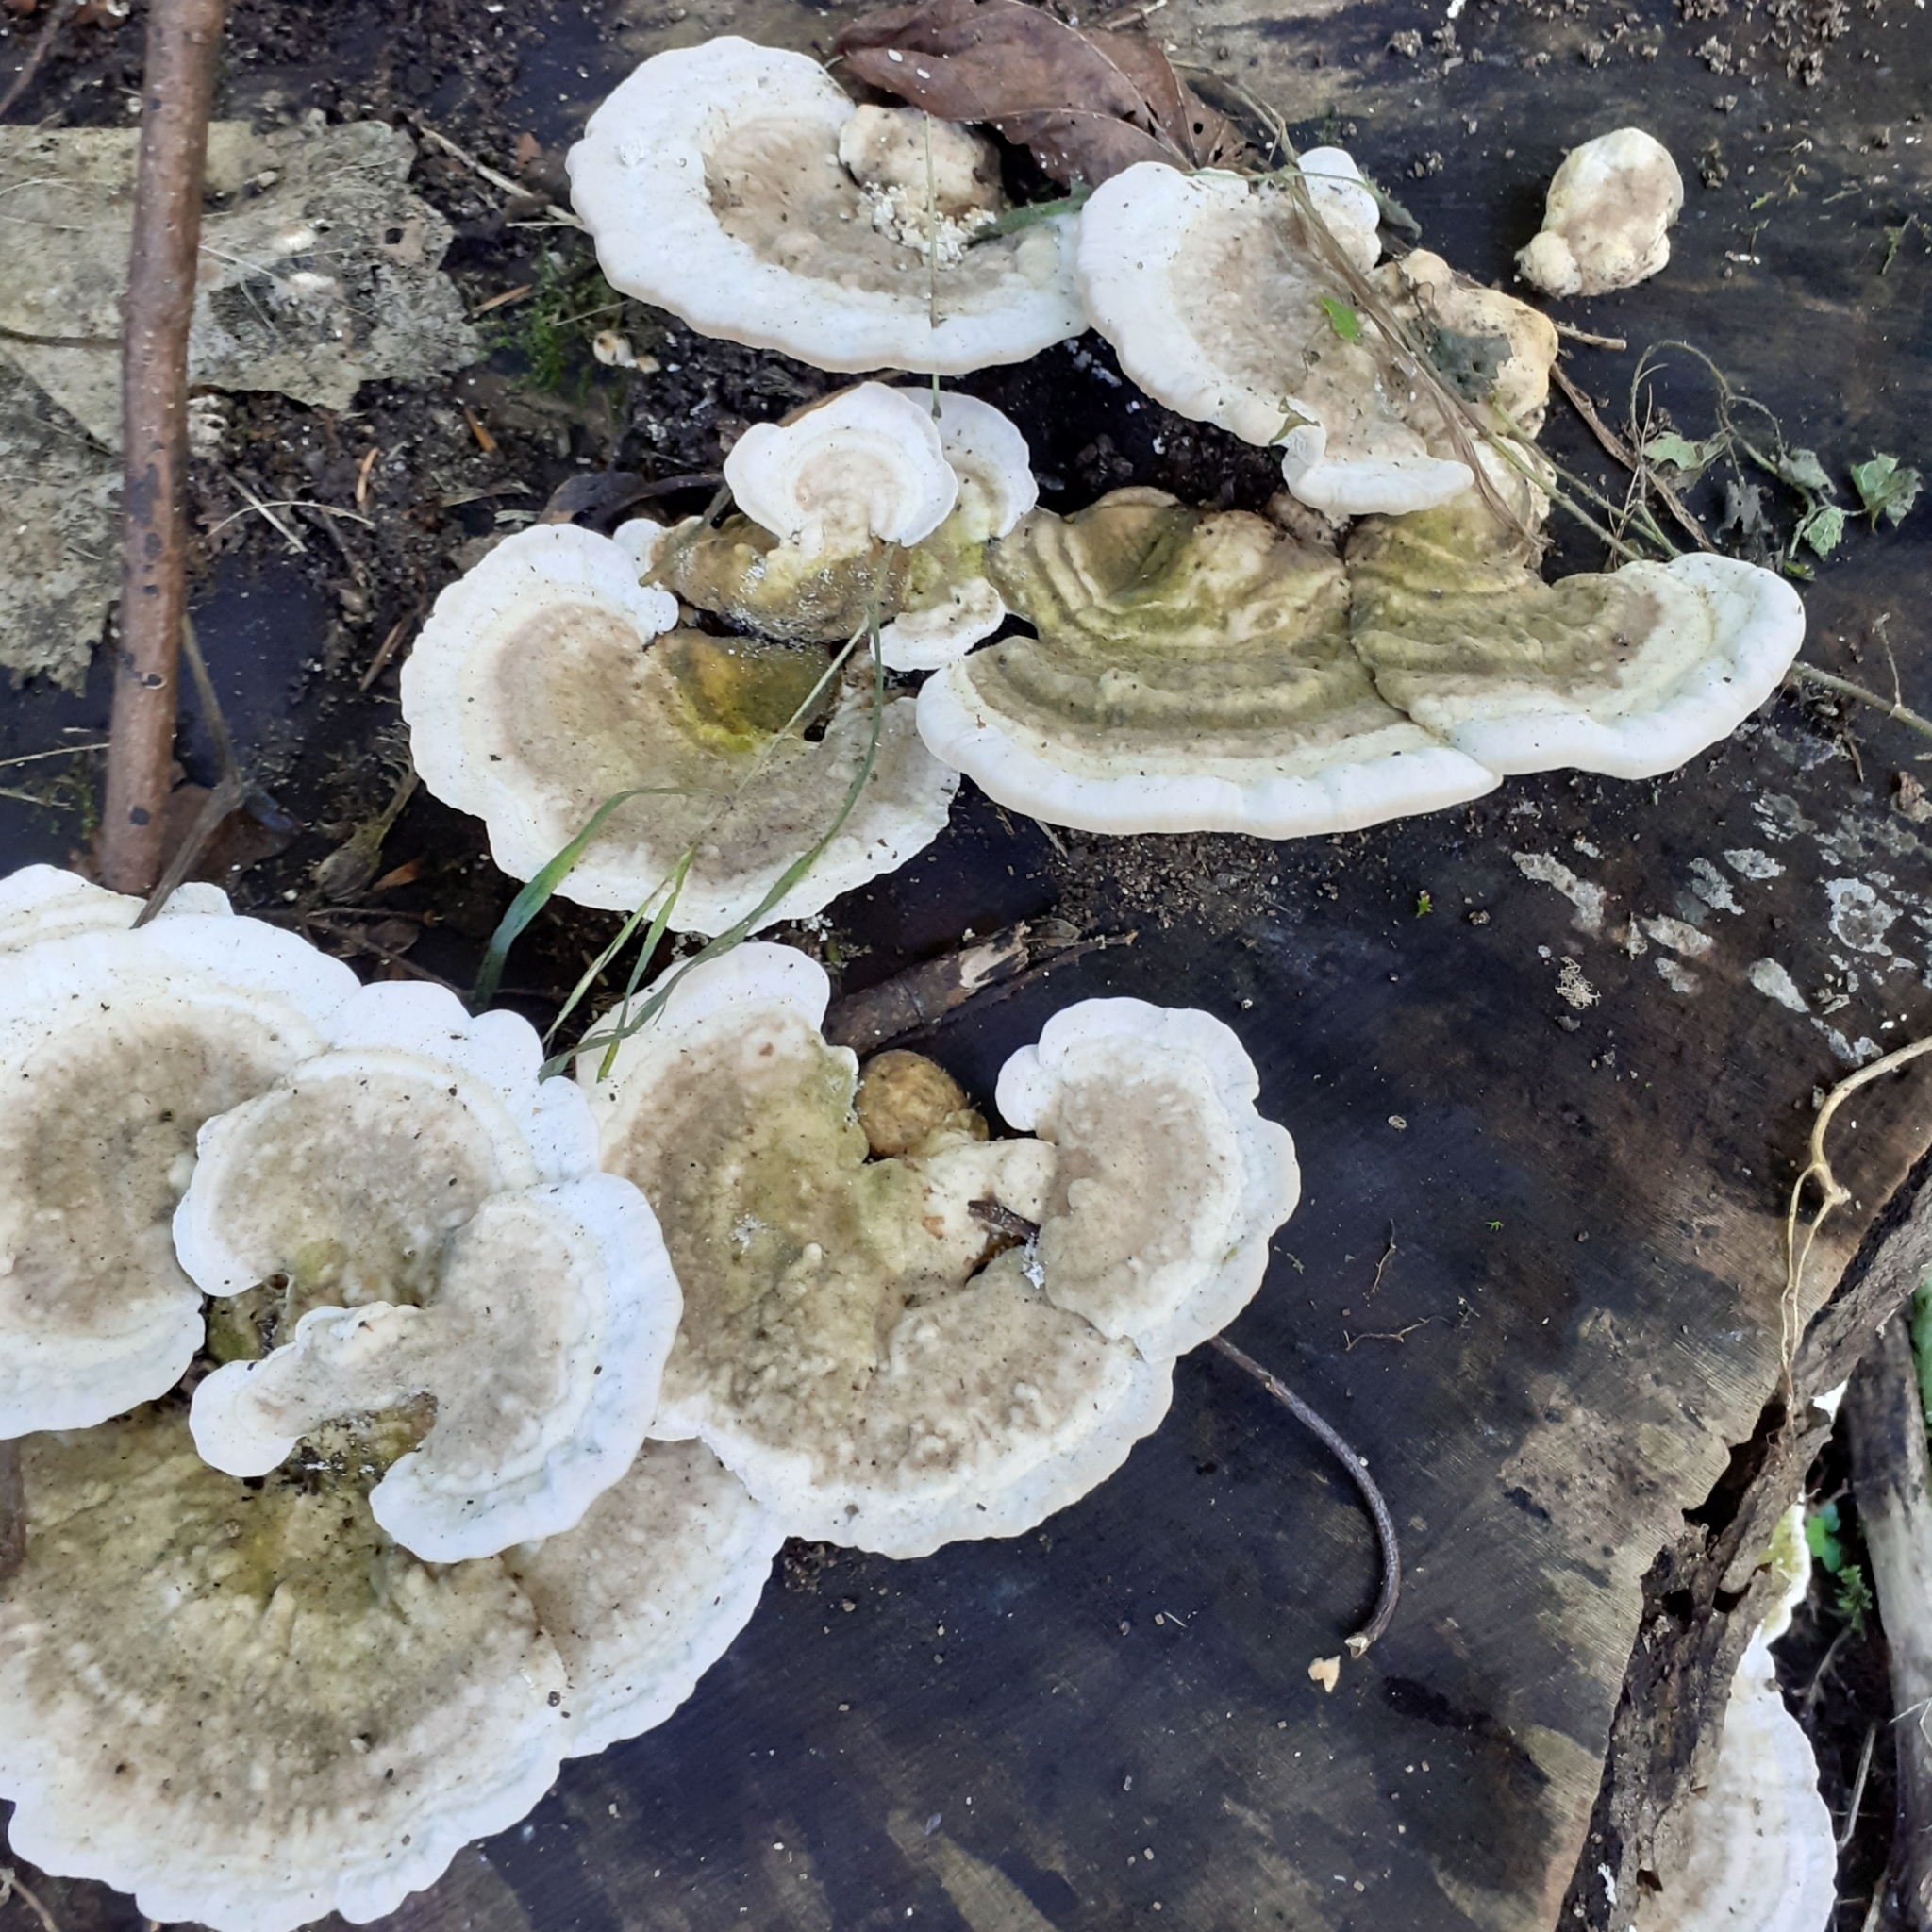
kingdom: Fungi
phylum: Basidiomycota
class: Agaricomycetes
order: Polyporales
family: Polyporaceae
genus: Trametes
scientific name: Trametes gibbosa
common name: Lumpy bracket
